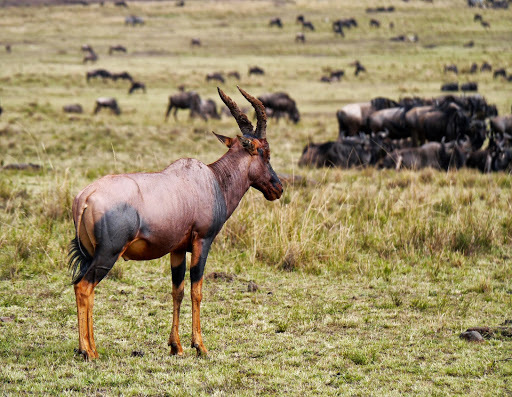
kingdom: Animalia
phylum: Chordata
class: Mammalia
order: Artiodactyla
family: Bovidae
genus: Damaliscus
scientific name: Damaliscus korrigum
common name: Topi
